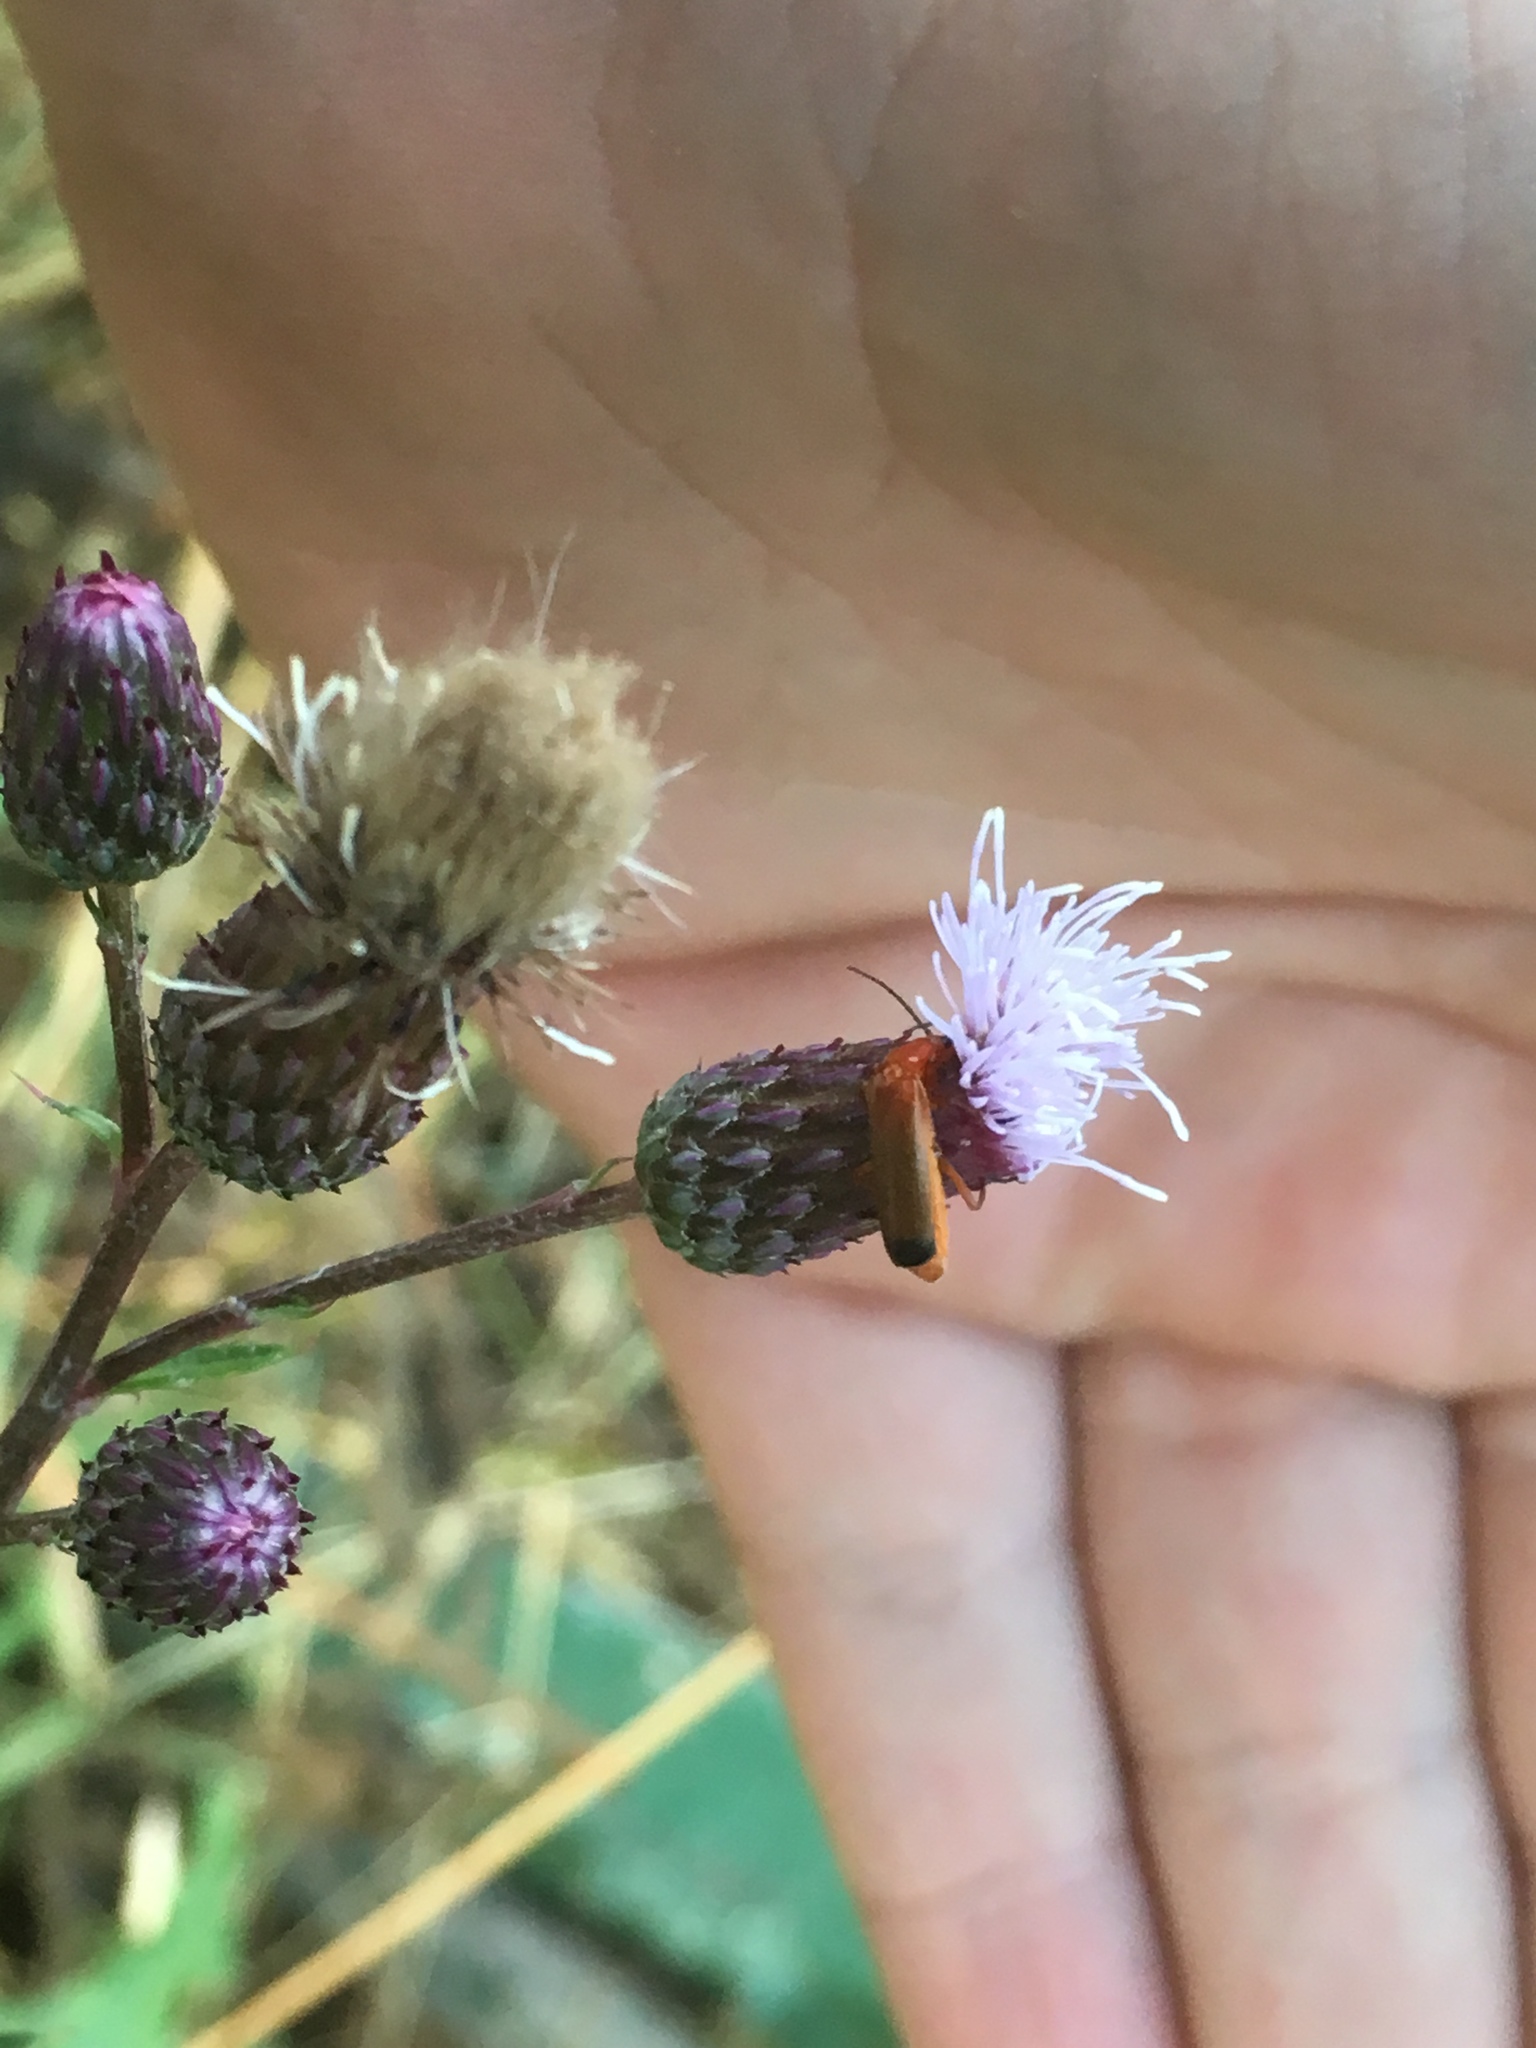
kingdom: Animalia
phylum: Arthropoda
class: Insecta
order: Coleoptera
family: Cantharidae
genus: Rhagonycha
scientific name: Rhagonycha fulva
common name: Common red soldier beetle
